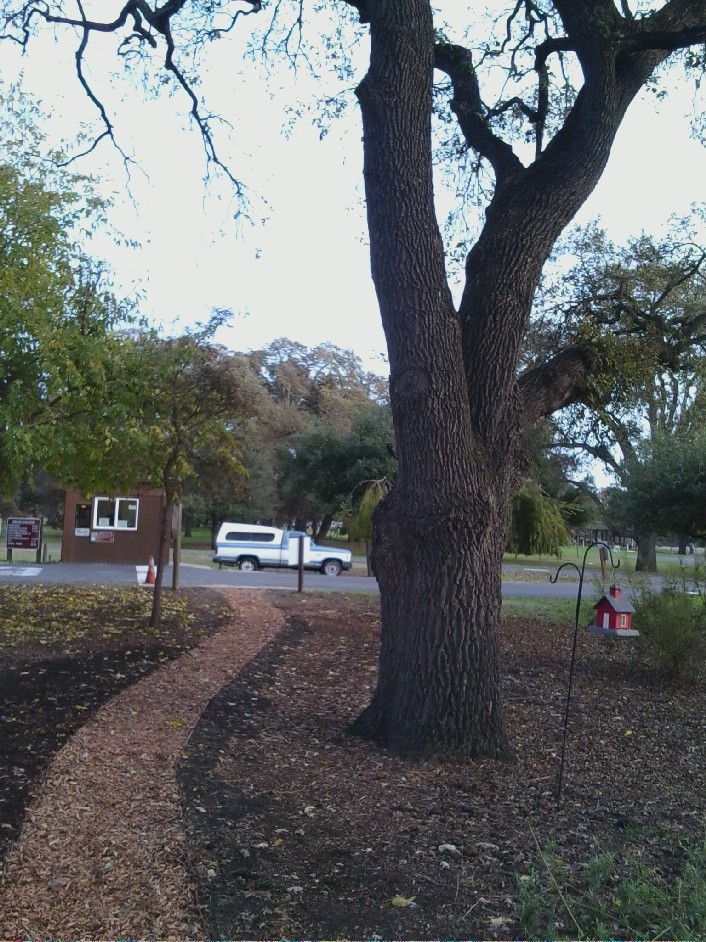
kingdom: Animalia
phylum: Chordata
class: Aves
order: Piciformes
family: Picidae
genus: Melanerpes
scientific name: Melanerpes formicivorus
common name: Acorn woodpecker
